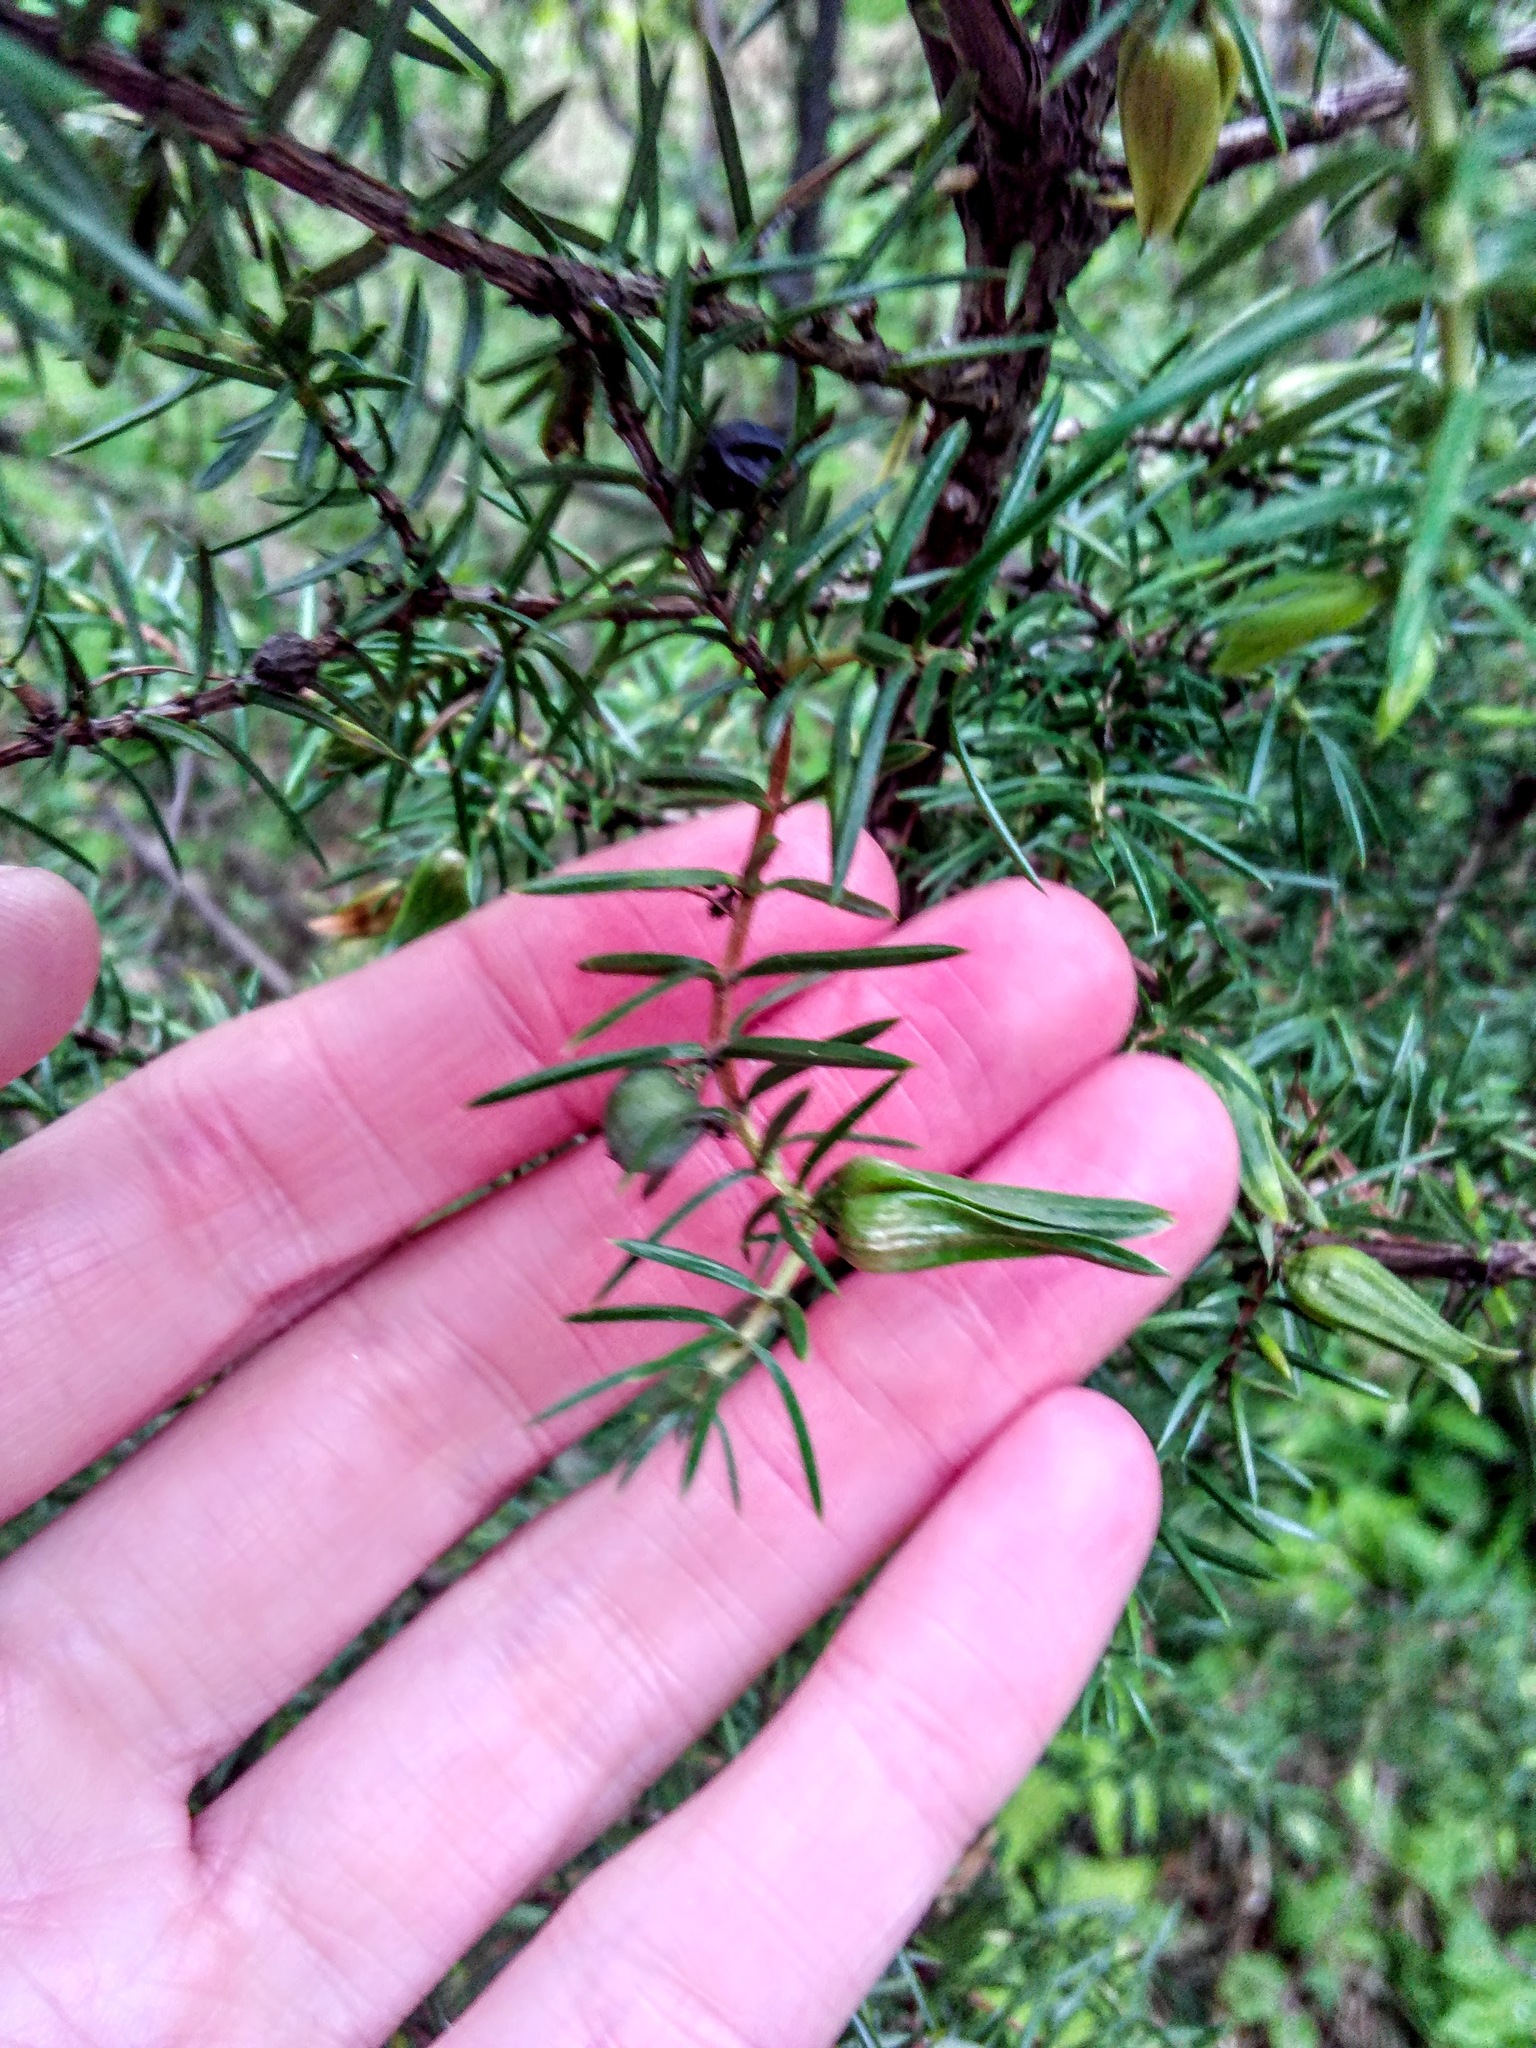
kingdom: Plantae
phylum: Tracheophyta
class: Pinopsida
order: Pinales
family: Cupressaceae
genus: Juniperus
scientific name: Juniperus communis
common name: Common juniper
